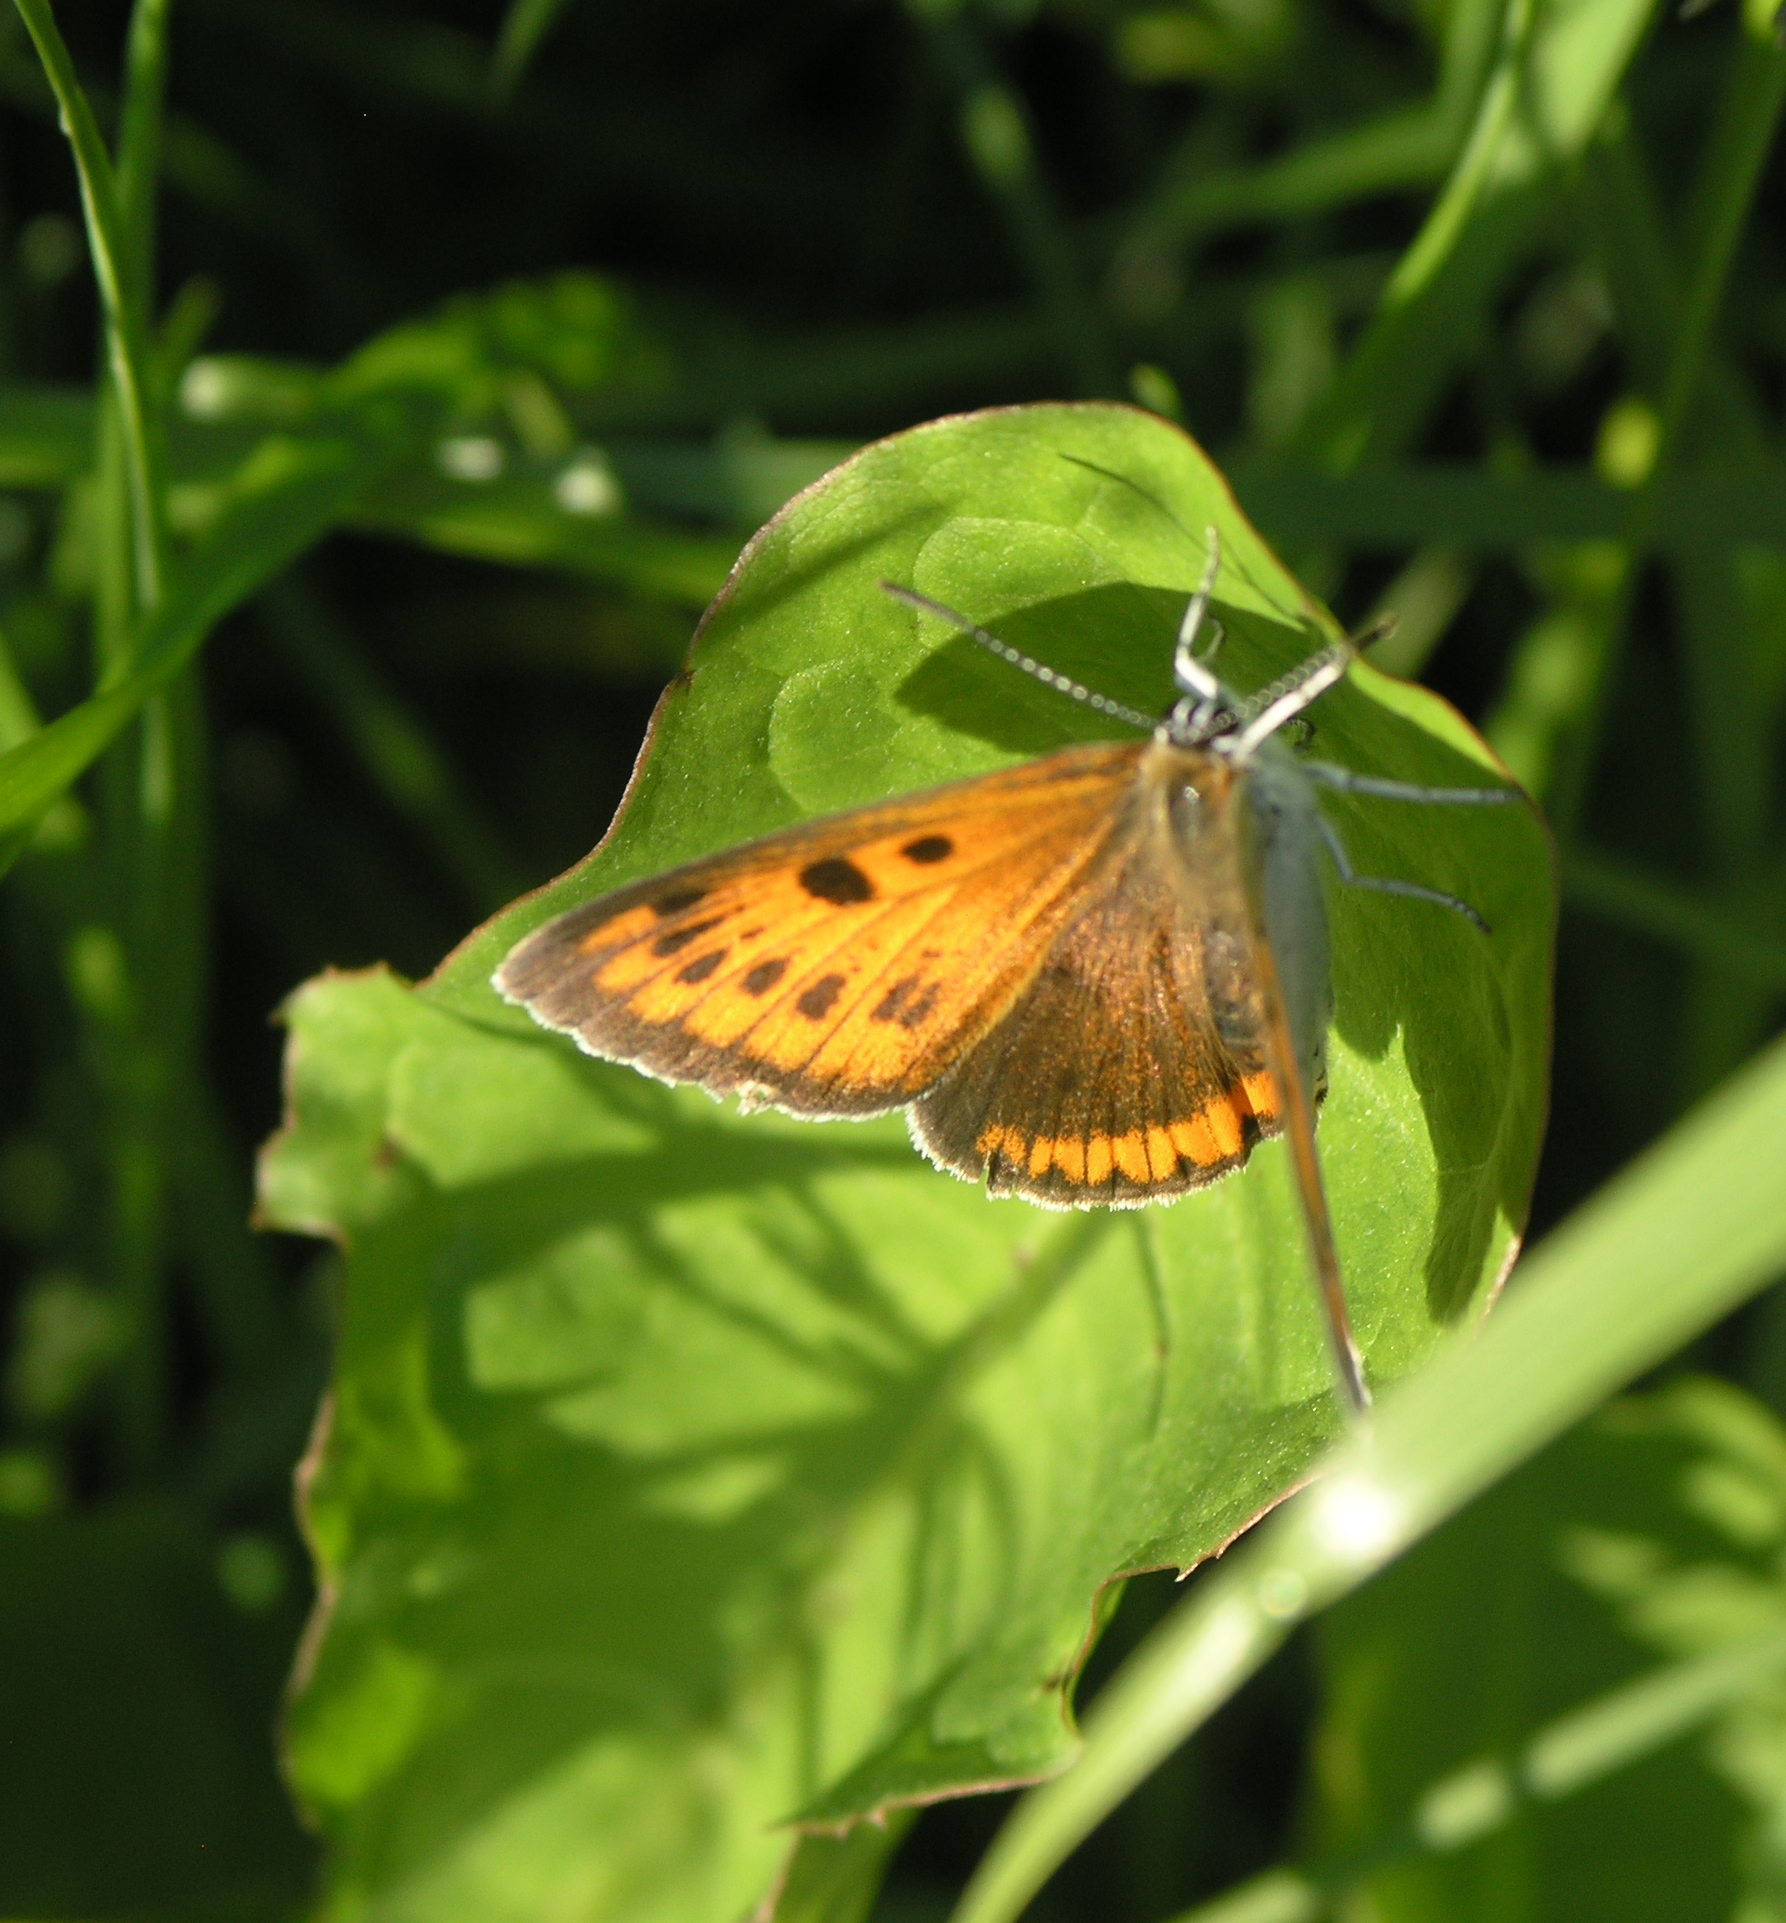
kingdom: Animalia
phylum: Arthropoda
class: Insecta
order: Lepidoptera
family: Lycaenidae
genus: Lycaena
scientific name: Lycaena dispar
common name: Large copper
